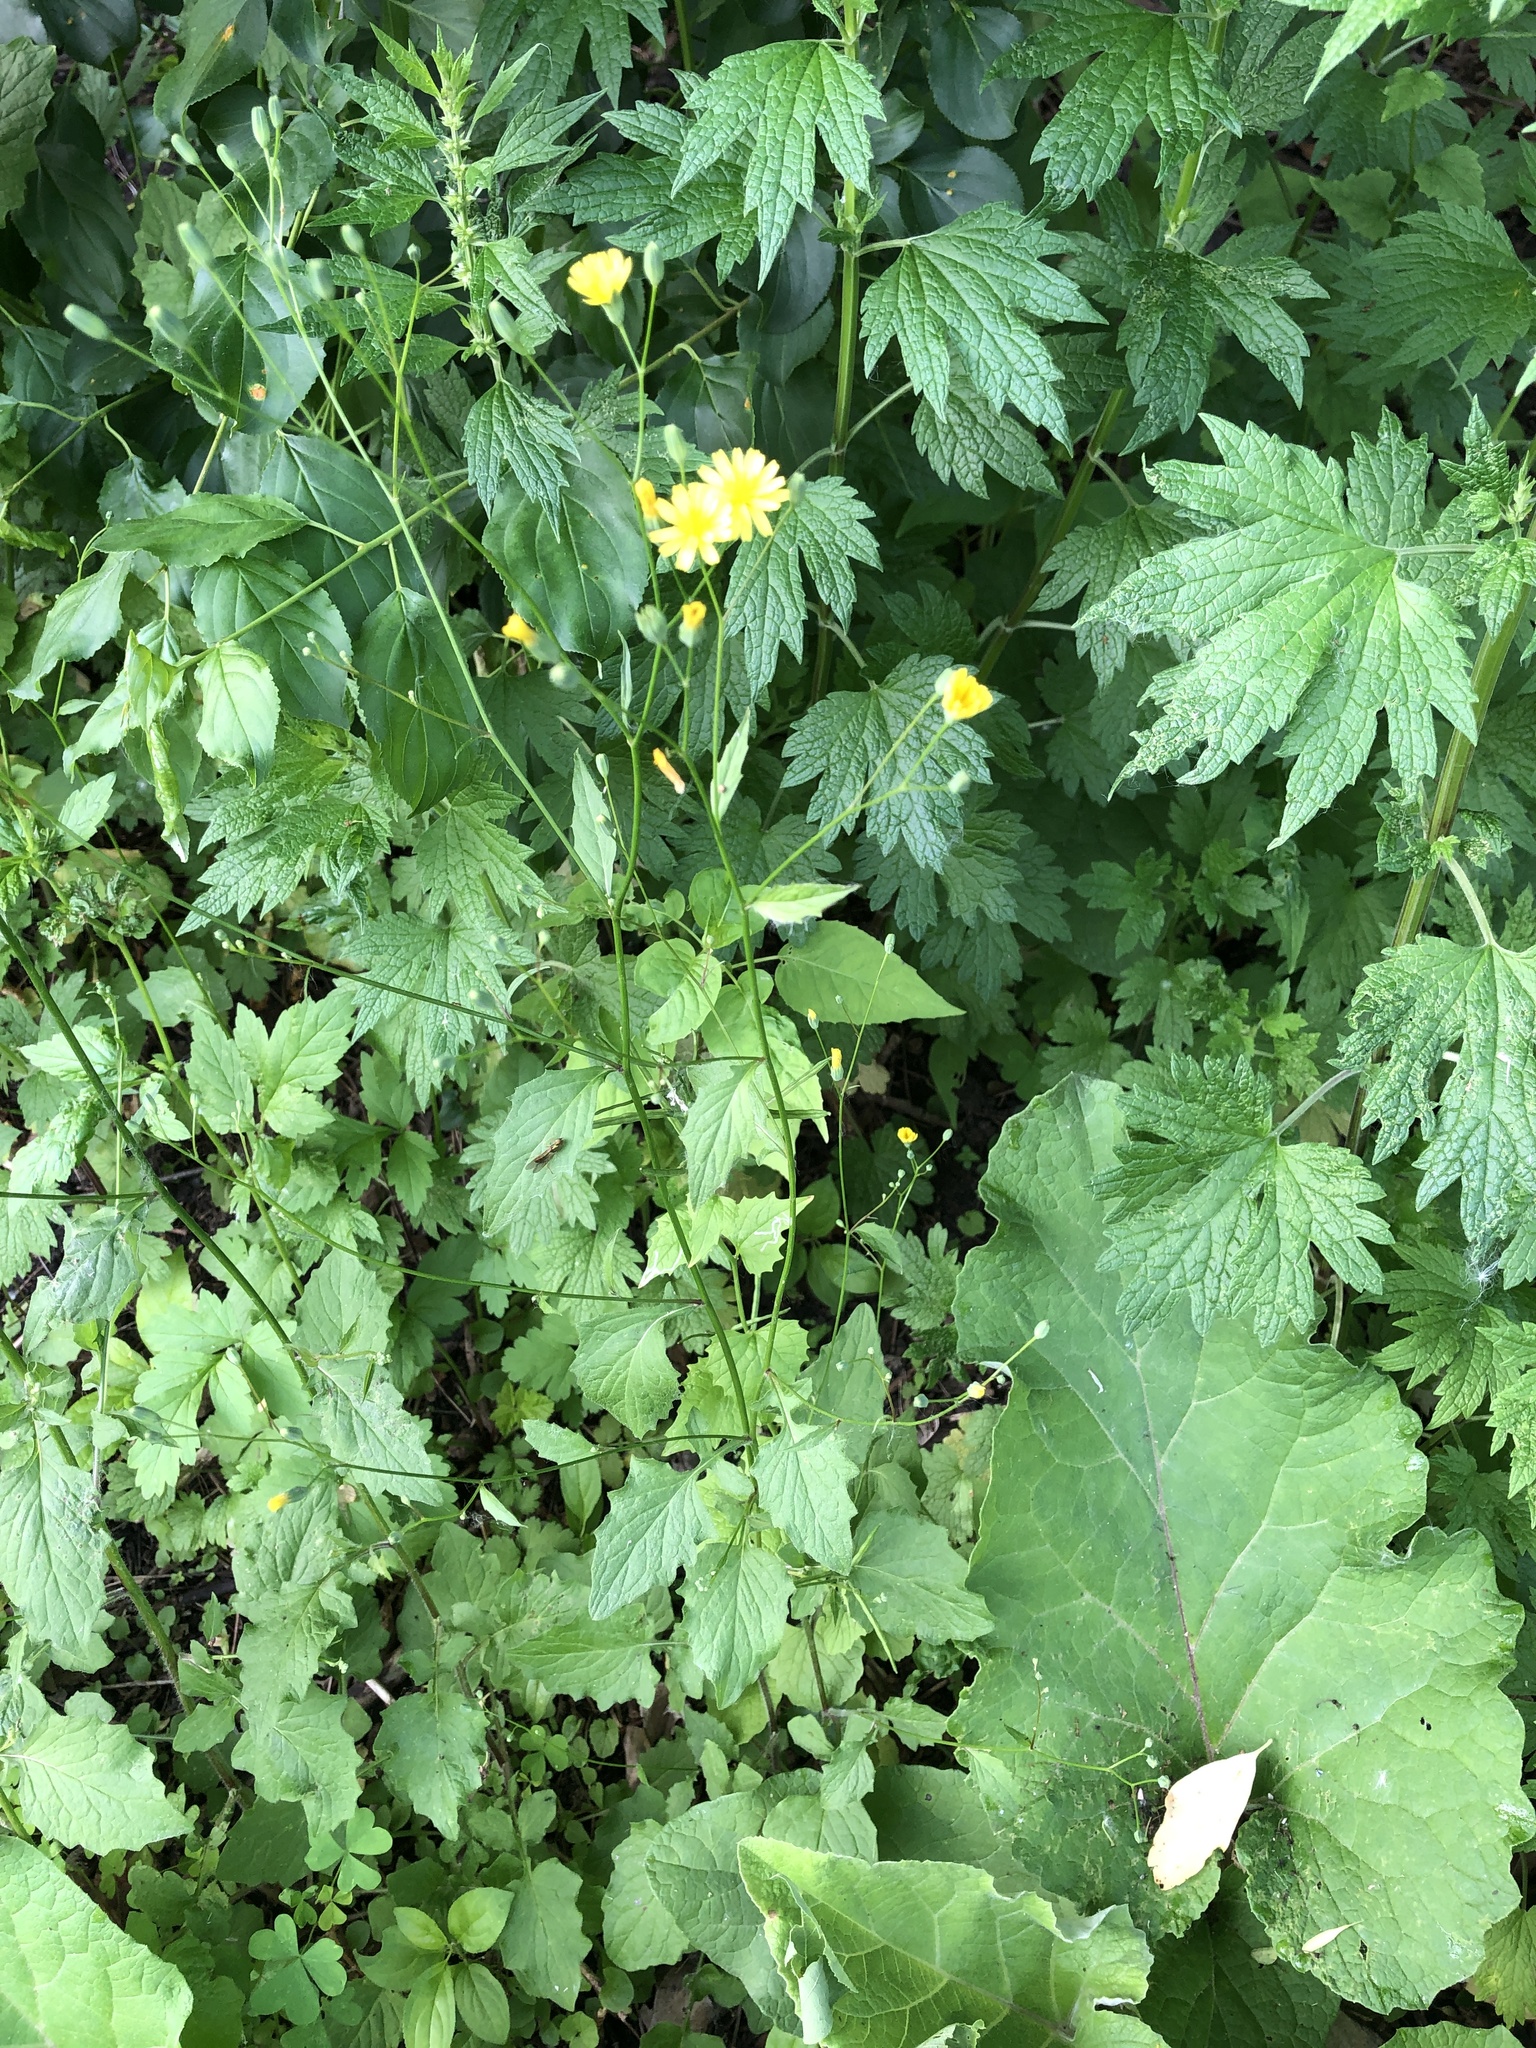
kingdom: Plantae
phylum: Tracheophyta
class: Magnoliopsida
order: Asterales
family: Asteraceae
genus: Lapsana
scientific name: Lapsana communis
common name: Nipplewort
